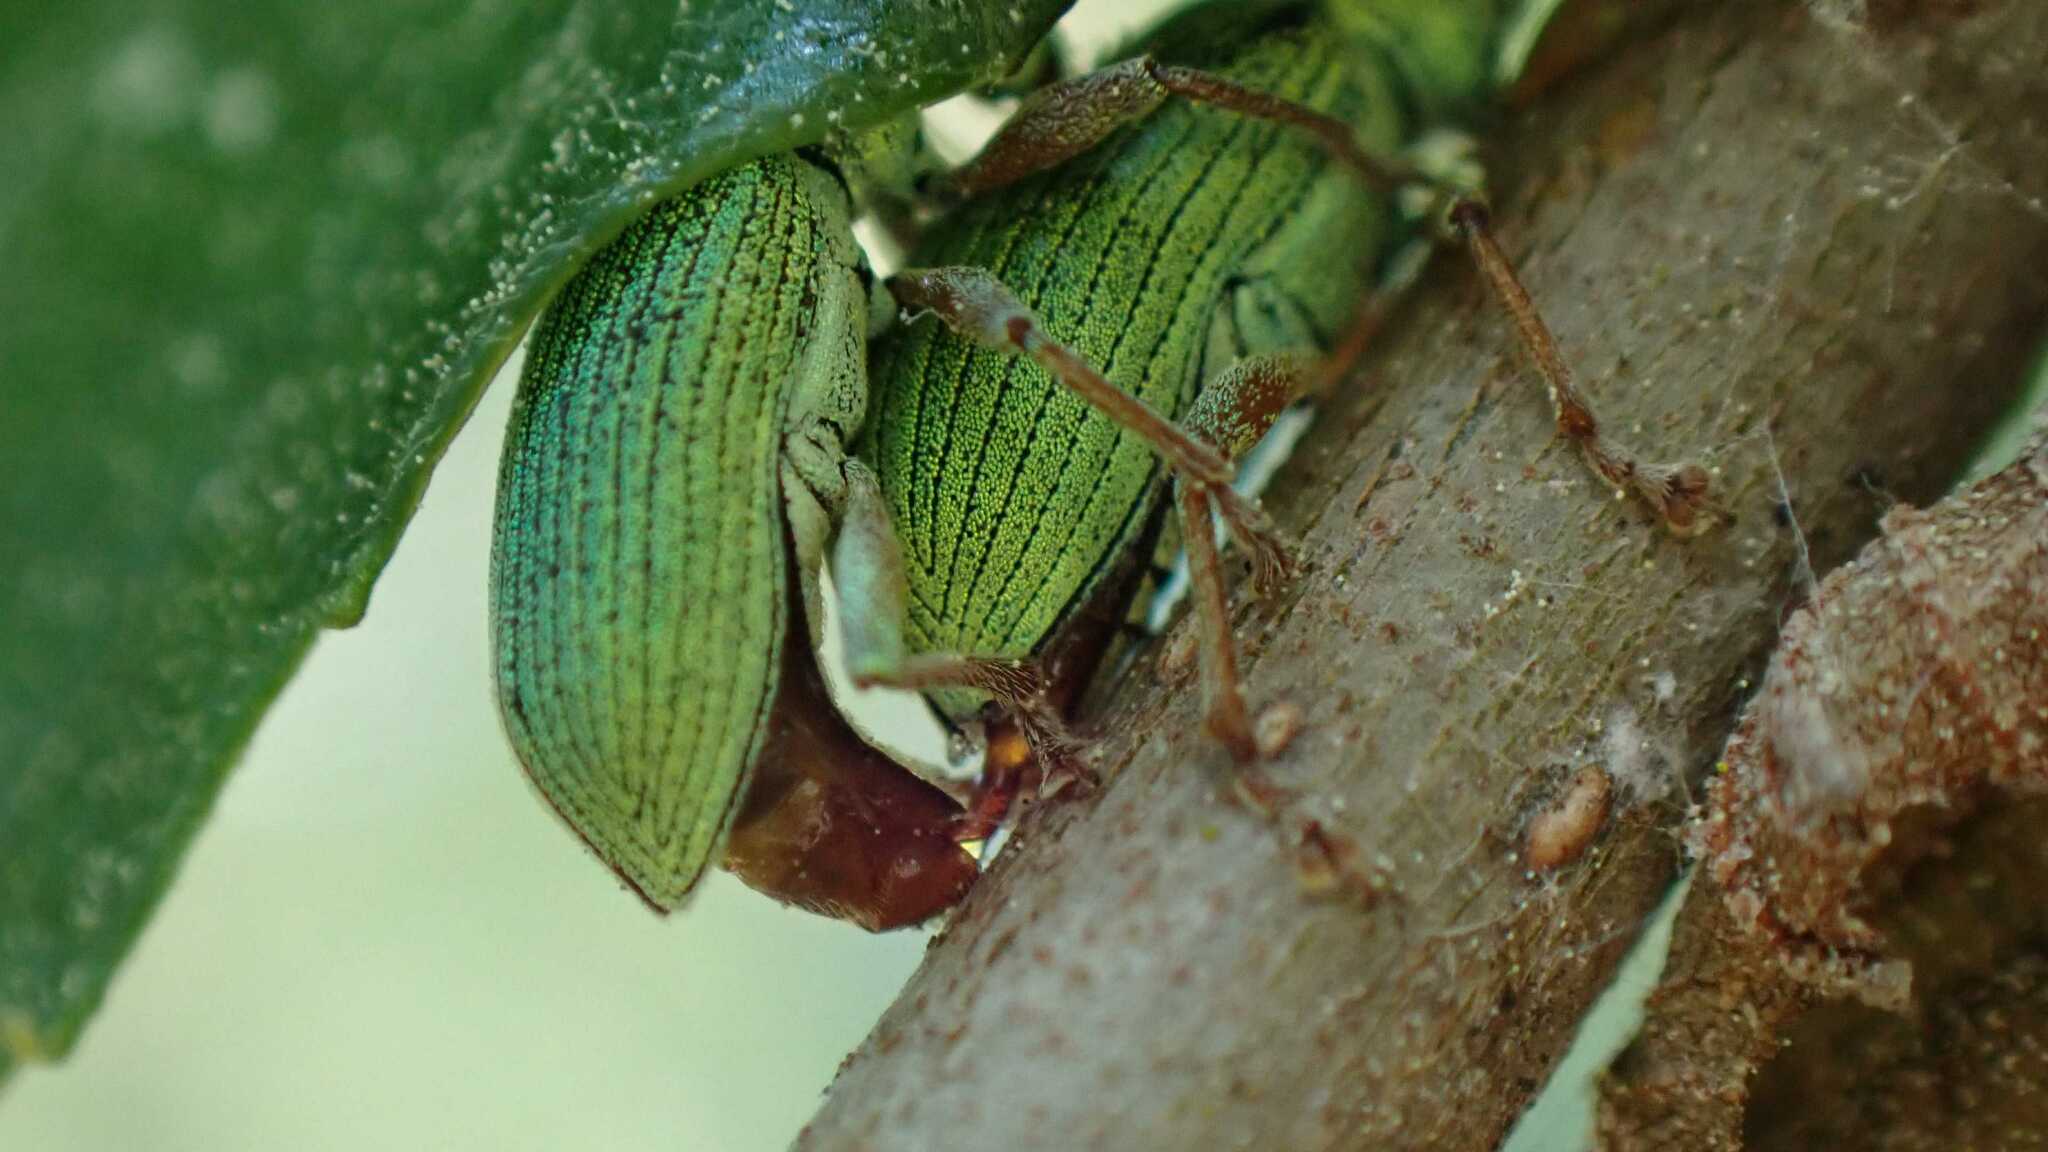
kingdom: Animalia
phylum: Arthropoda
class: Insecta
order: Coleoptera
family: Curculionidae
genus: Polydrusus
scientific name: Polydrusus formosus
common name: Weevil
